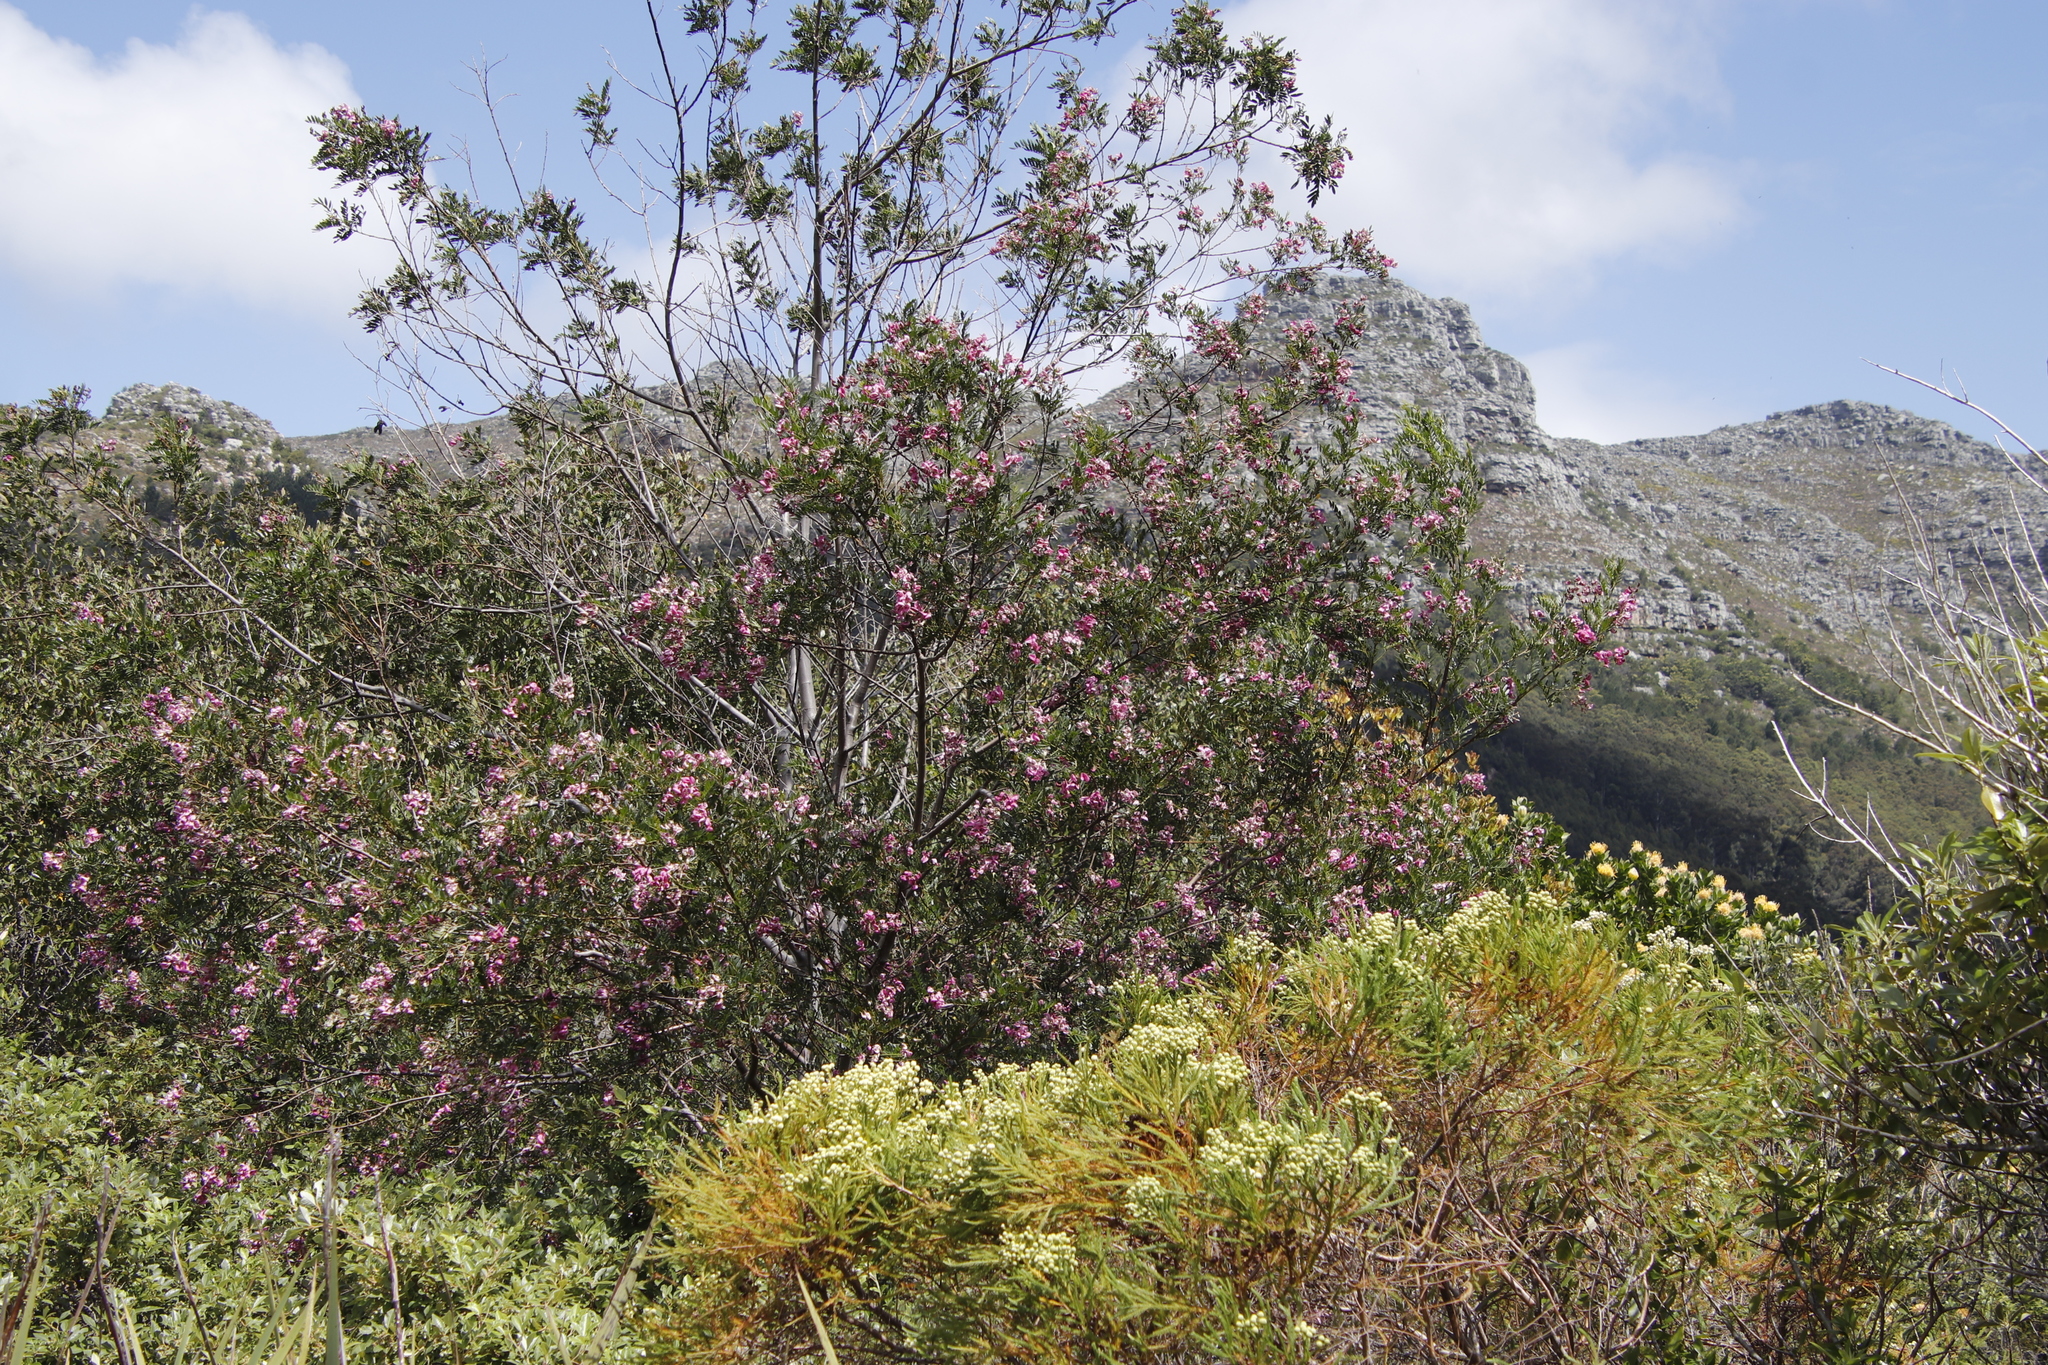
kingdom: Plantae
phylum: Tracheophyta
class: Magnoliopsida
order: Fabales
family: Fabaceae
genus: Virgilia
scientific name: Virgilia divaricata
